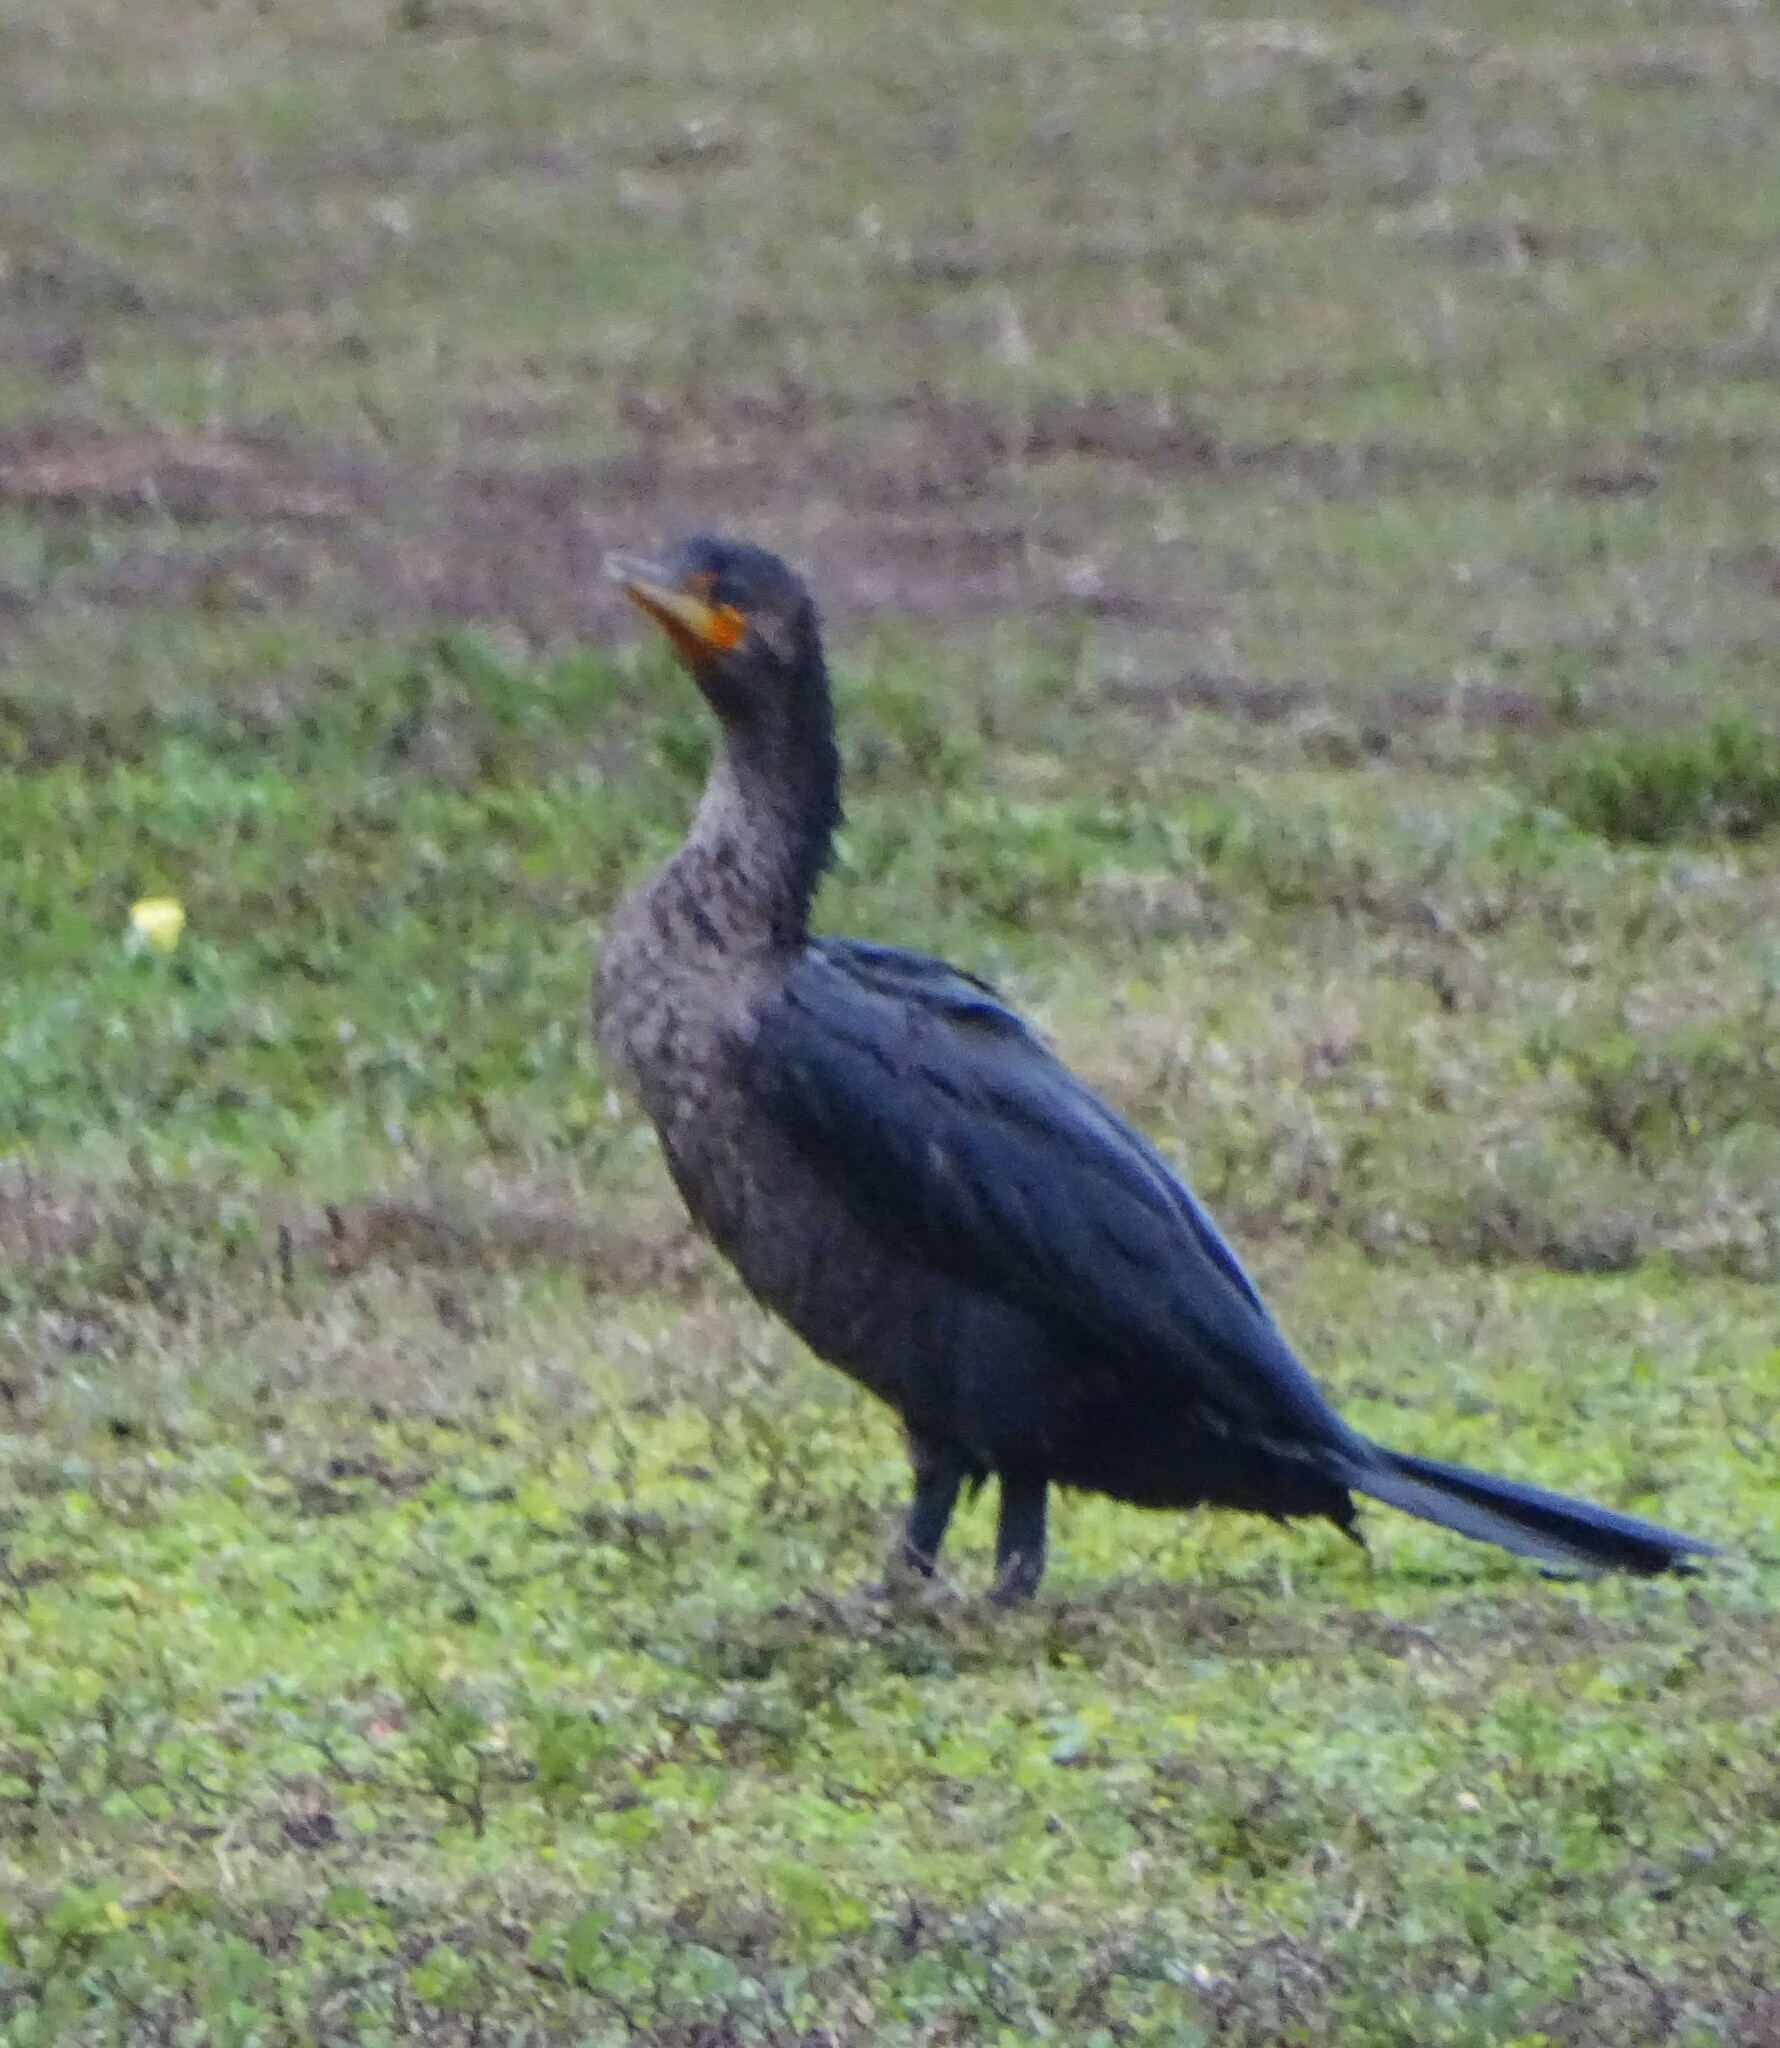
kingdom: Animalia
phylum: Chordata
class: Aves
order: Suliformes
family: Phalacrocoracidae
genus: Phalacrocorax
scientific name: Phalacrocorax auritus
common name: Double-crested cormorant
